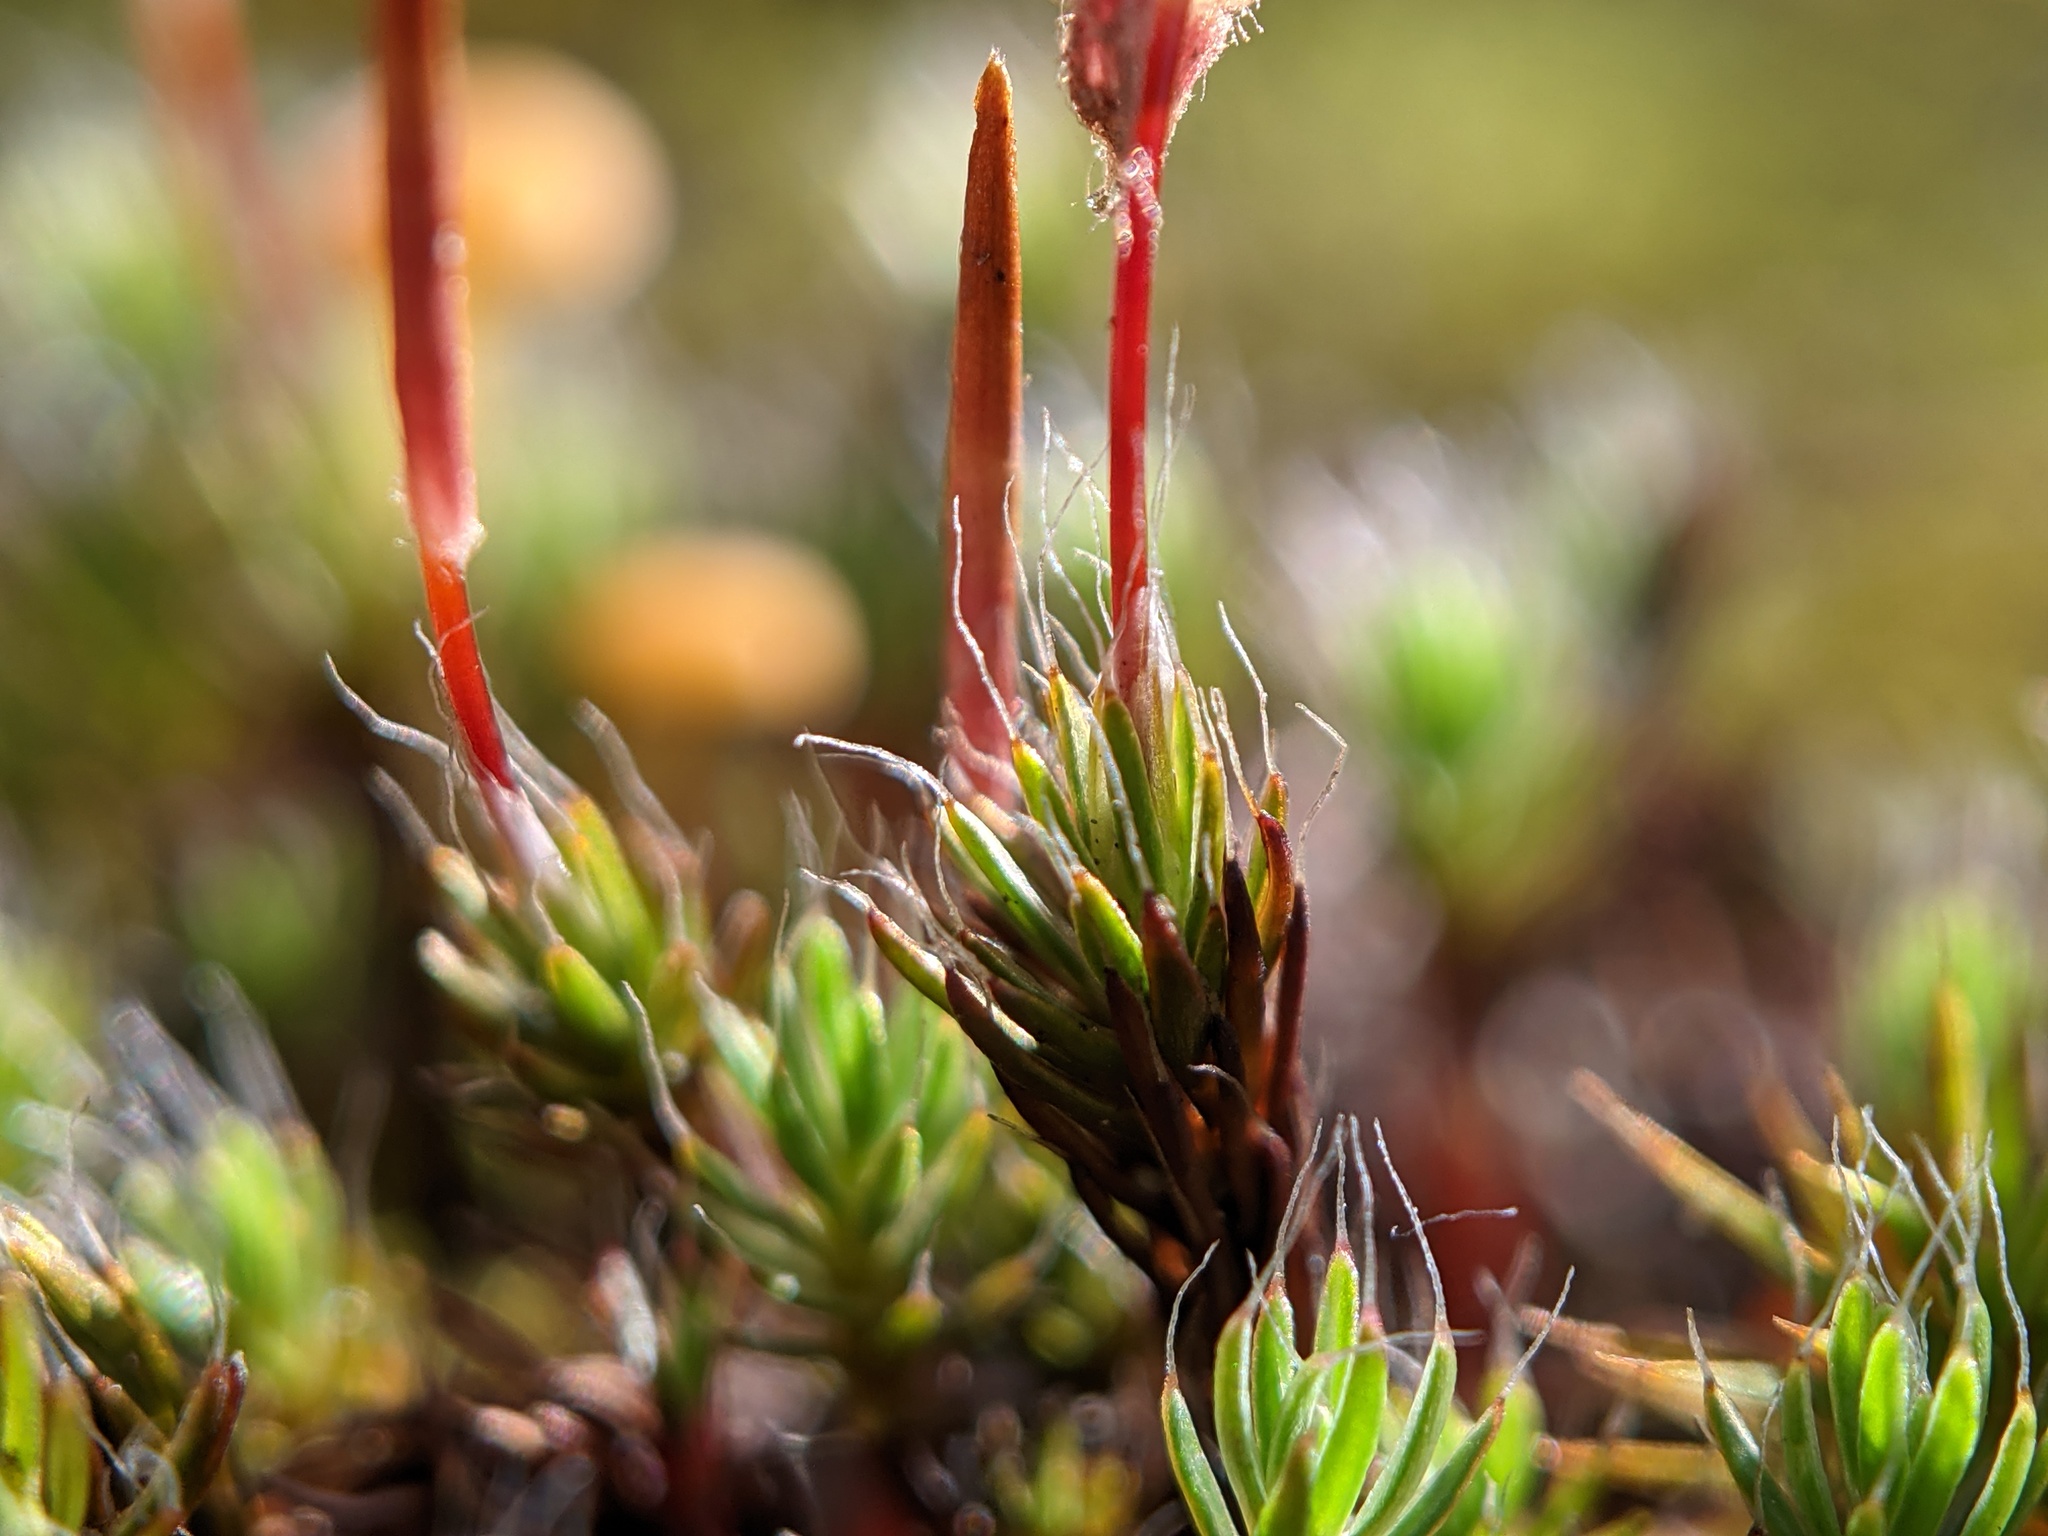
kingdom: Plantae
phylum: Bryophyta
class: Polytrichopsida
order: Polytrichales
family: Polytrichaceae
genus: Polytrichum
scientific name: Polytrichum piliferum
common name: Bristly haircap
